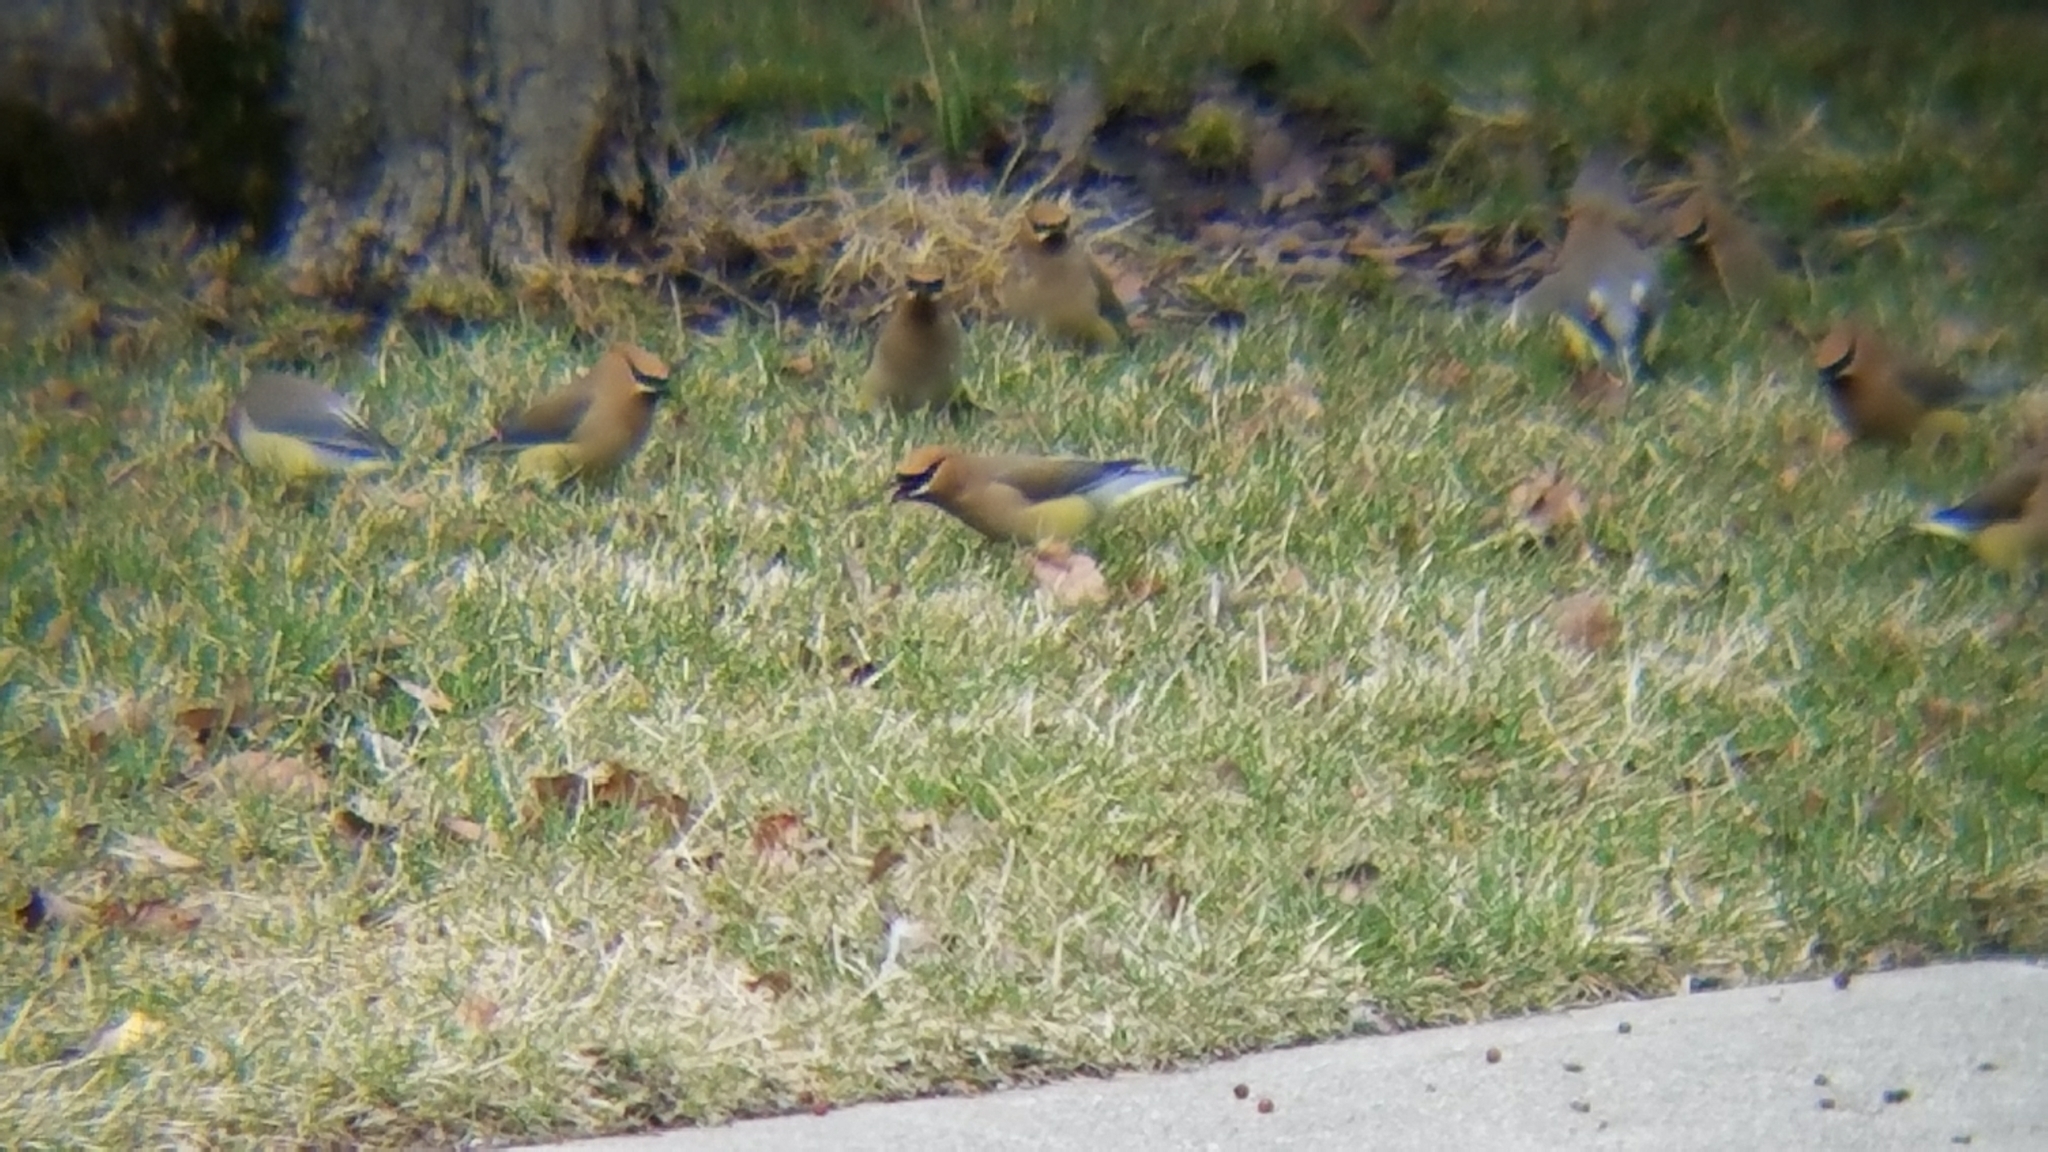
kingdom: Animalia
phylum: Chordata
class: Aves
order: Passeriformes
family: Bombycillidae
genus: Bombycilla
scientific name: Bombycilla cedrorum
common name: Cedar waxwing
